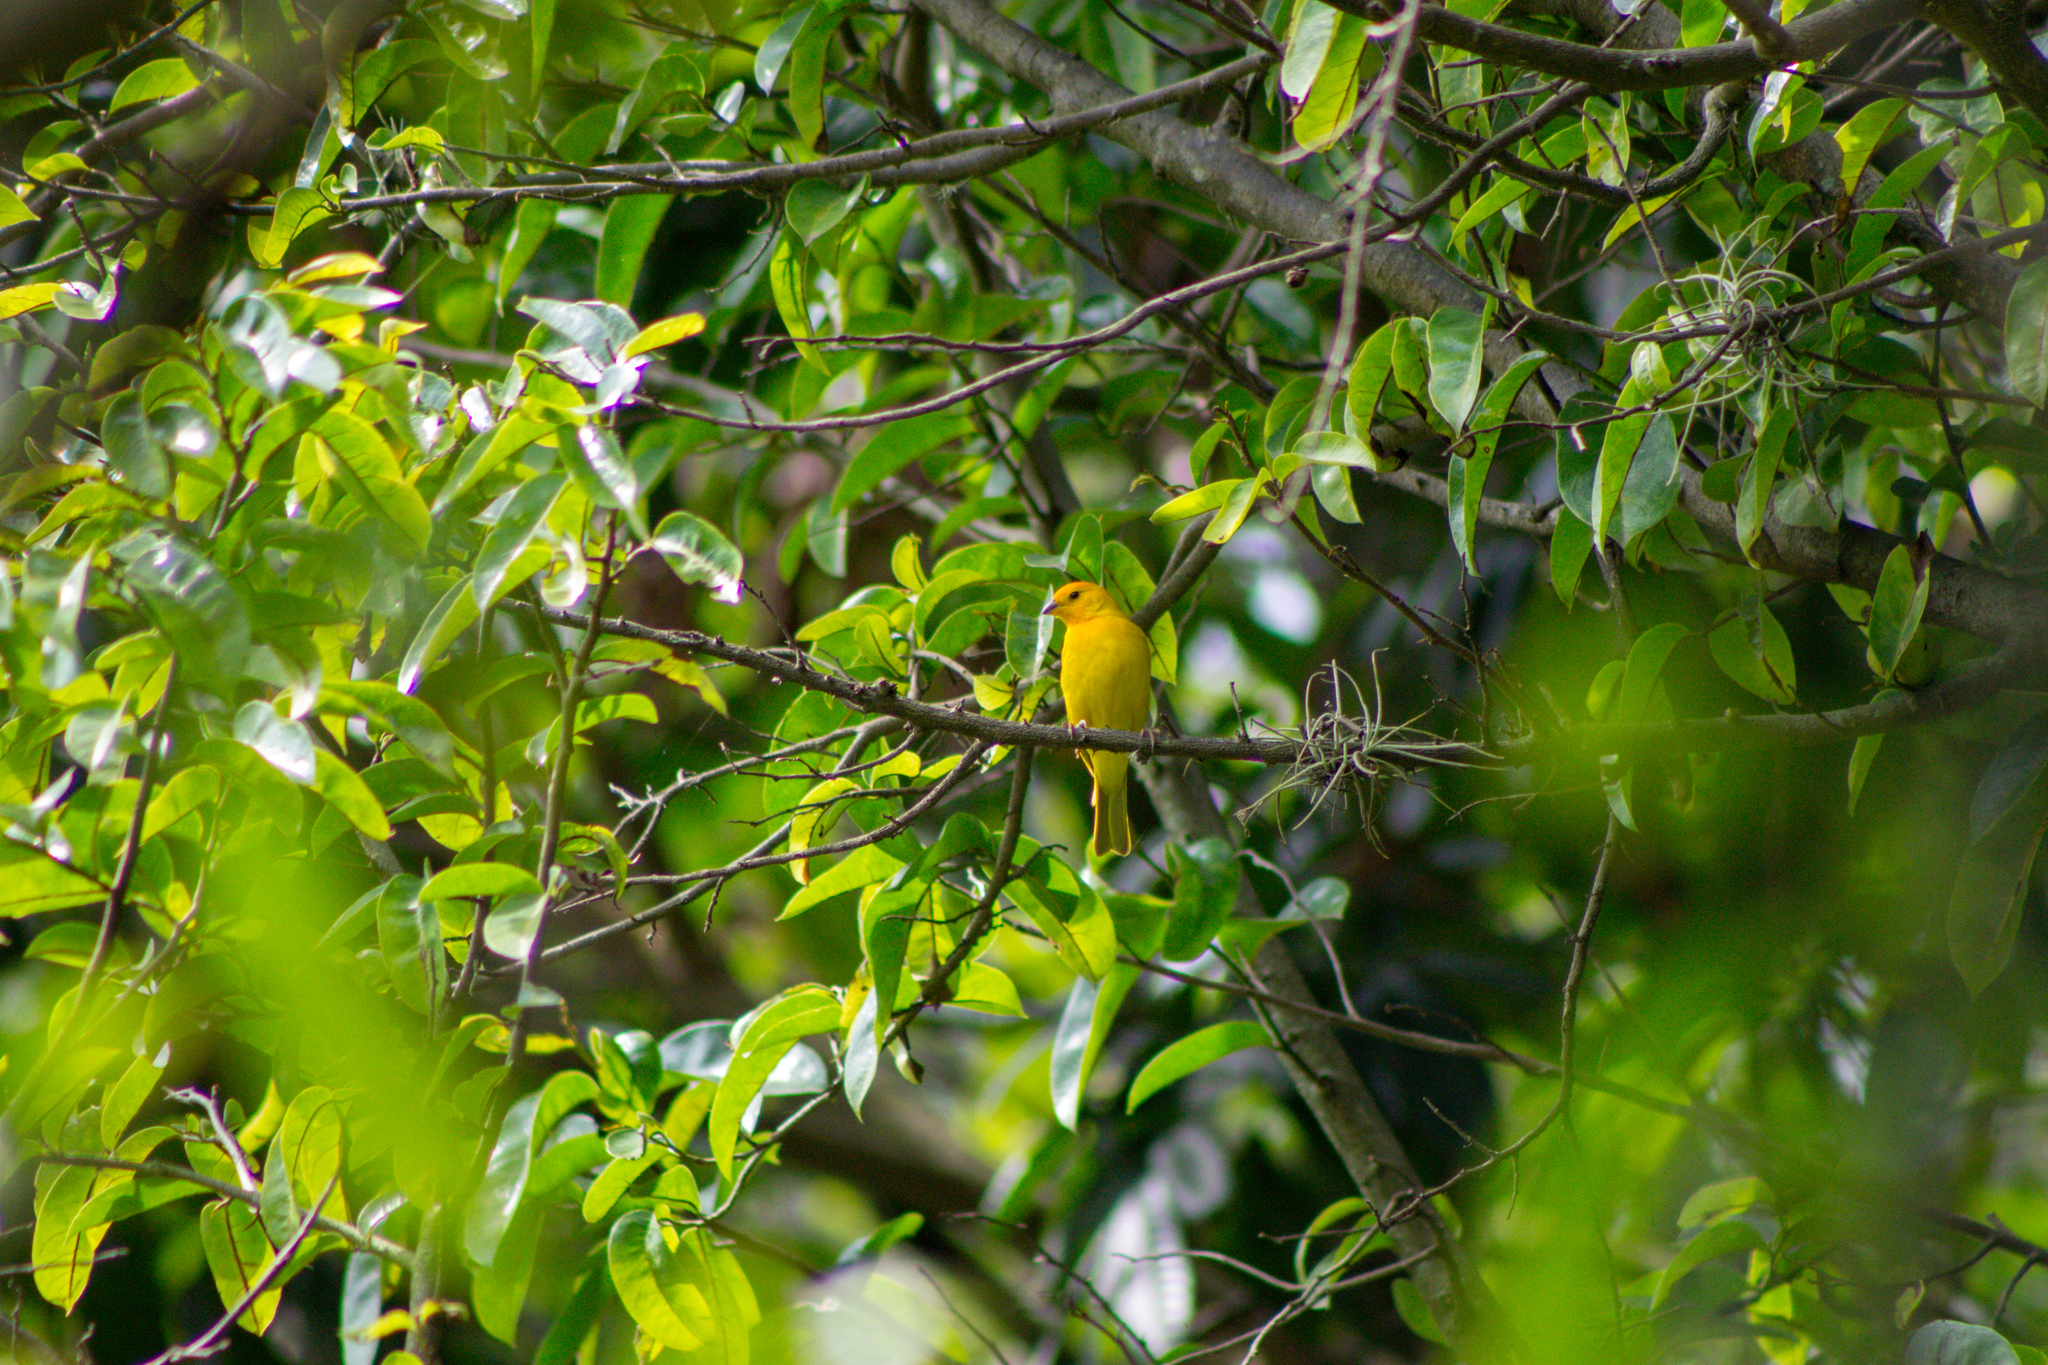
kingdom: Animalia
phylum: Chordata
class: Aves
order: Passeriformes
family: Thraupidae
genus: Sicalis
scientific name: Sicalis flaveola
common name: Saffron finch
